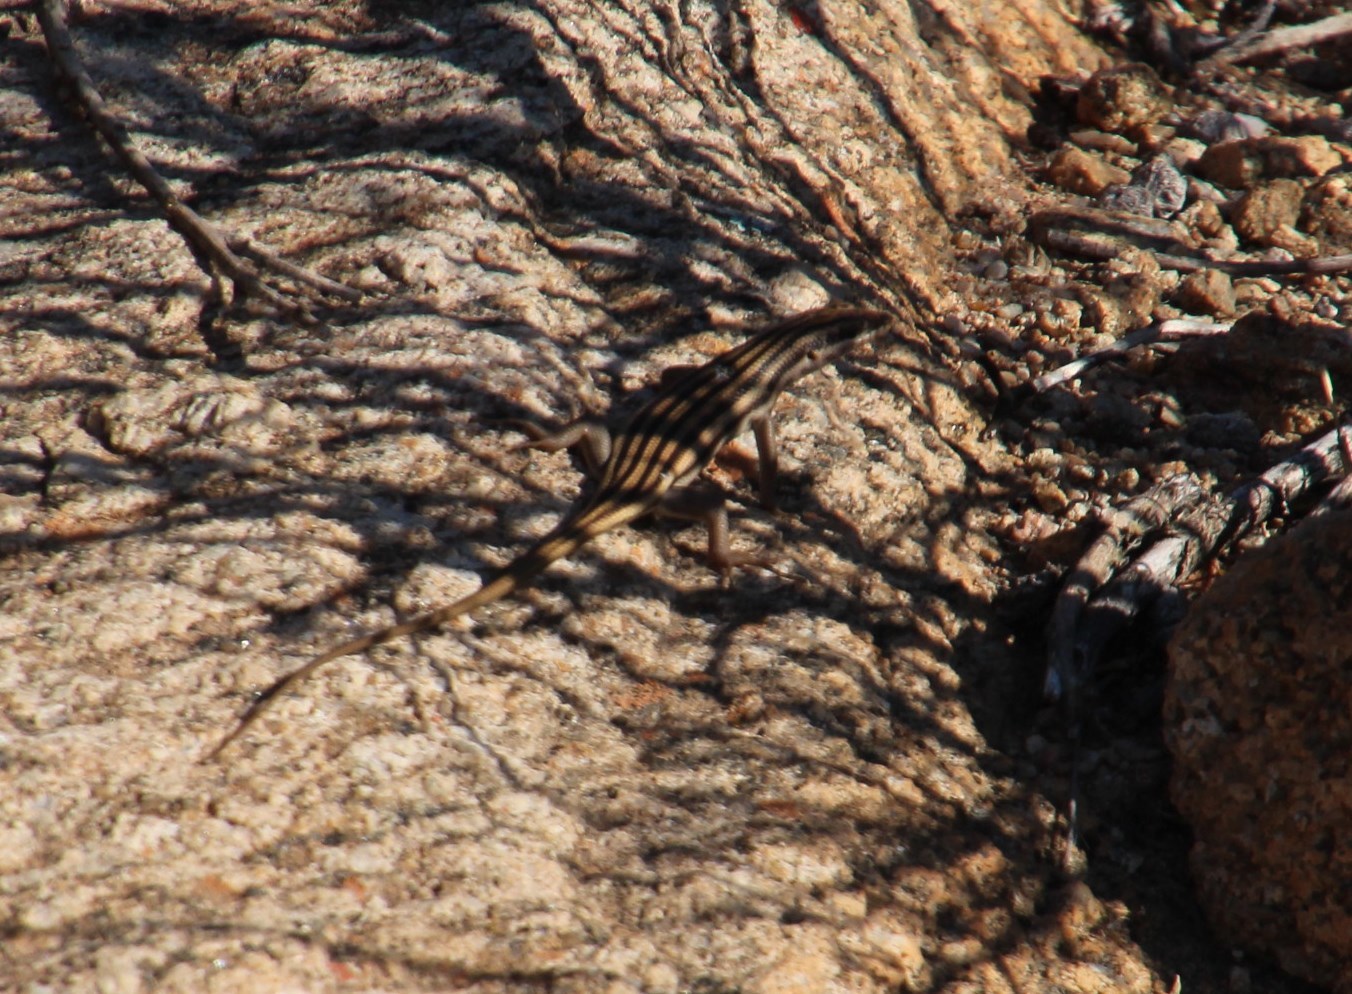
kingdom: Animalia
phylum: Chordata
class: Squamata
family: Scincidae
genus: Trachylepis
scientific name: Trachylepis sulcata
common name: Western rock skink
